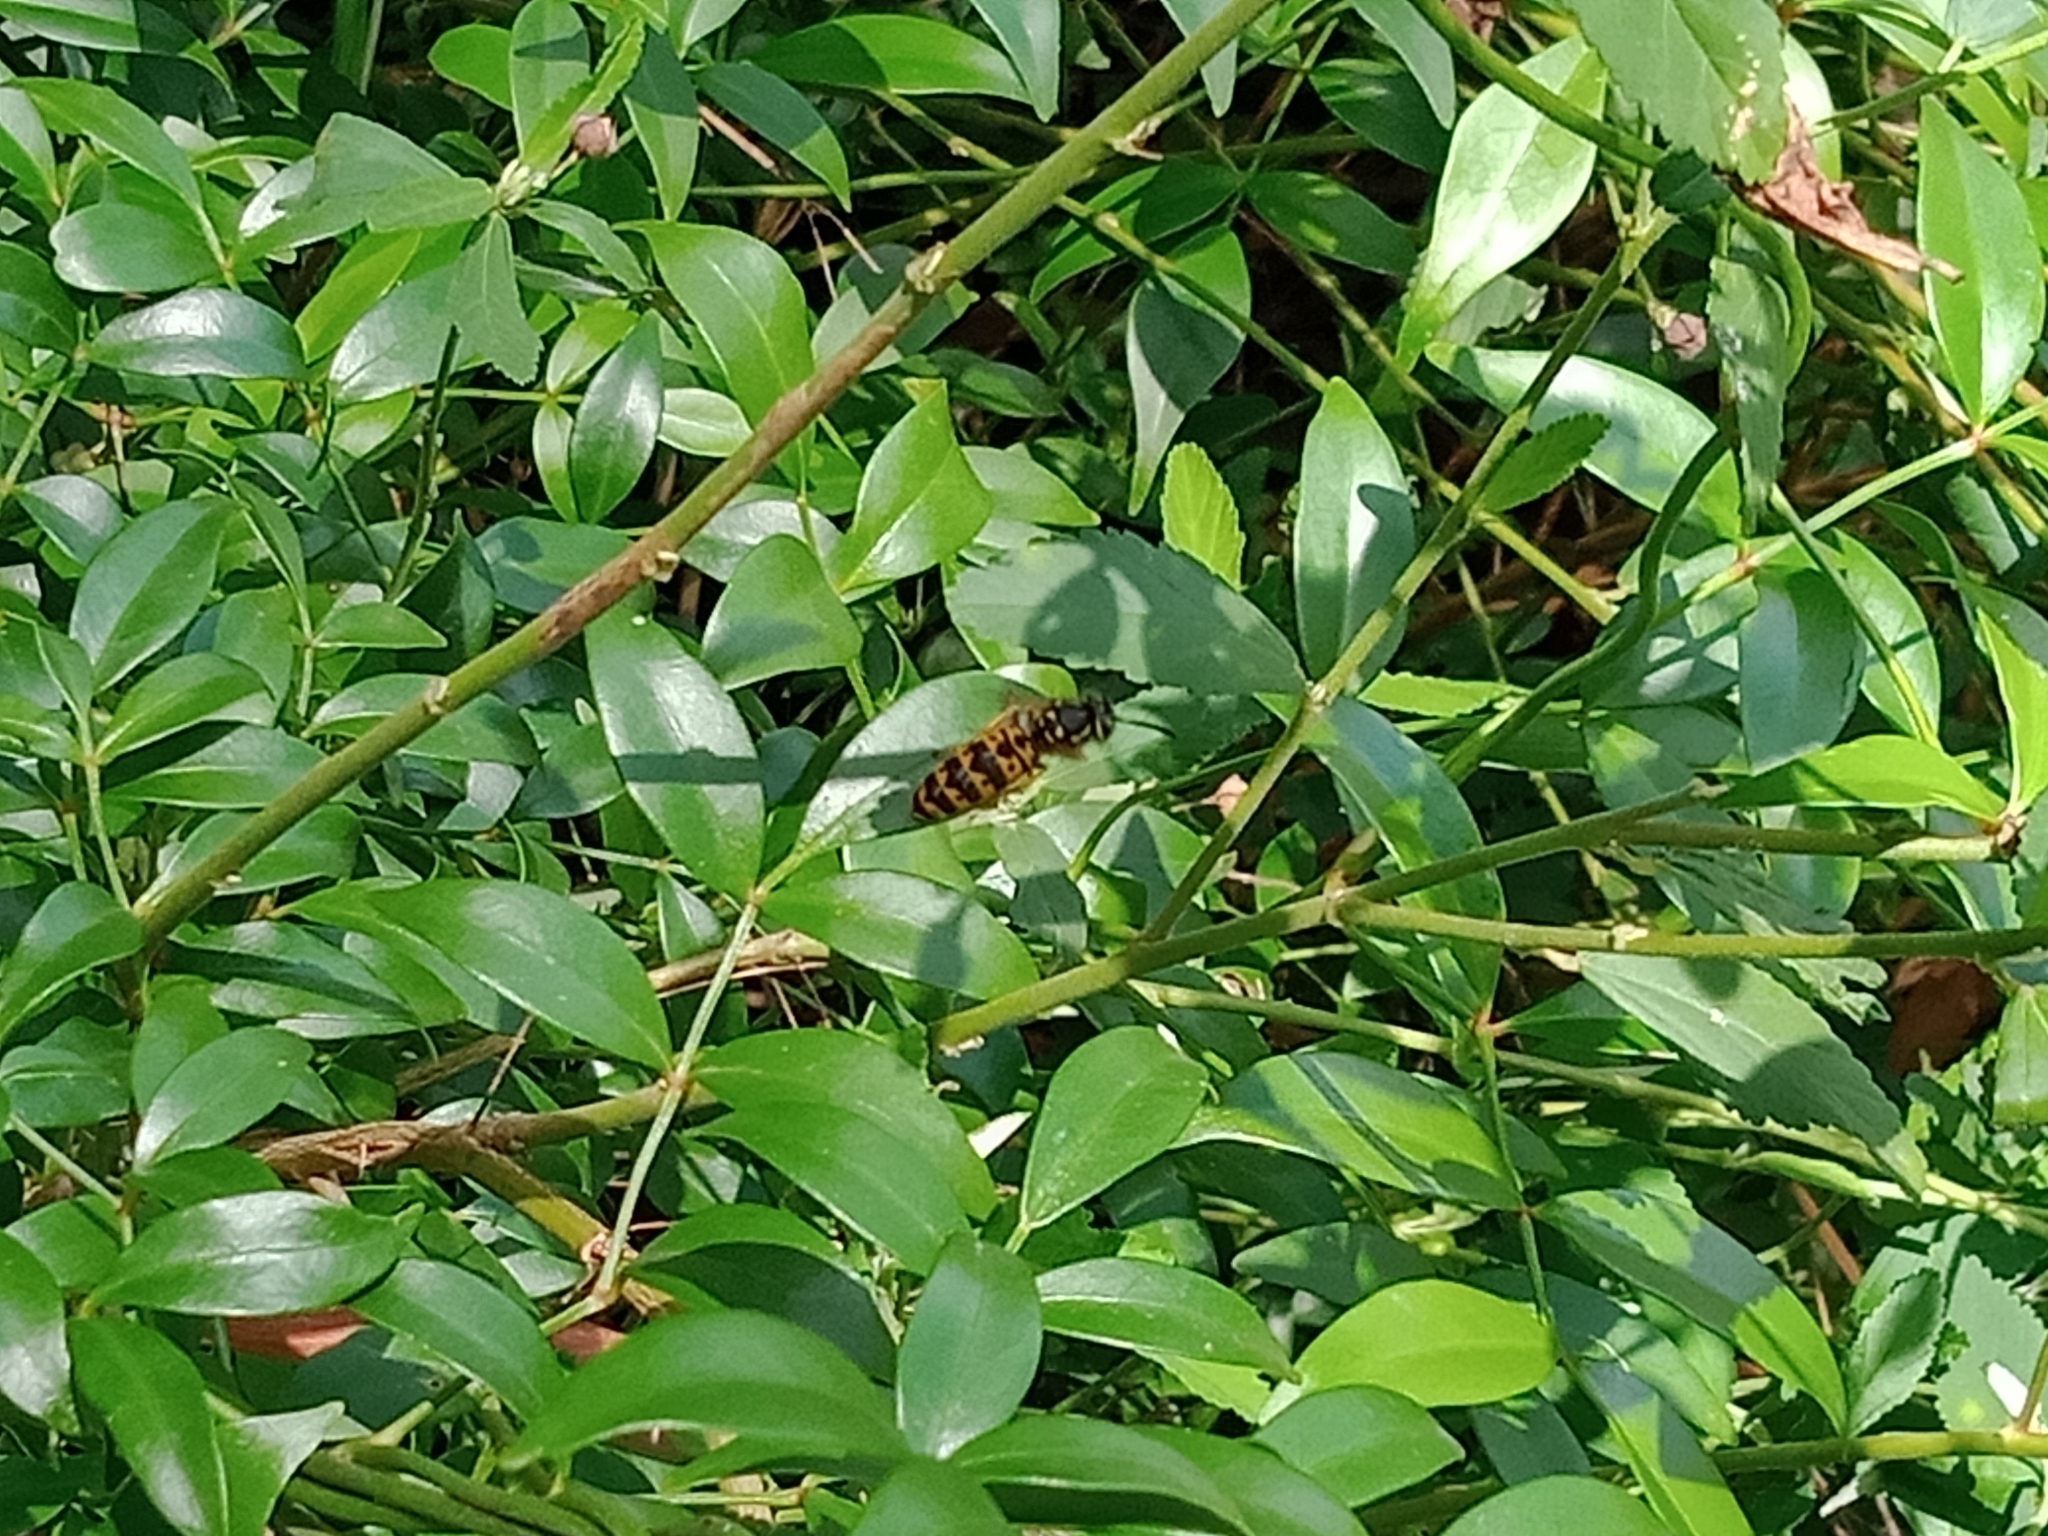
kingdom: Animalia
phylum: Arthropoda
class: Insecta
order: Hymenoptera
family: Vespidae
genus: Vespula
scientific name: Vespula germanica
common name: German wasp
